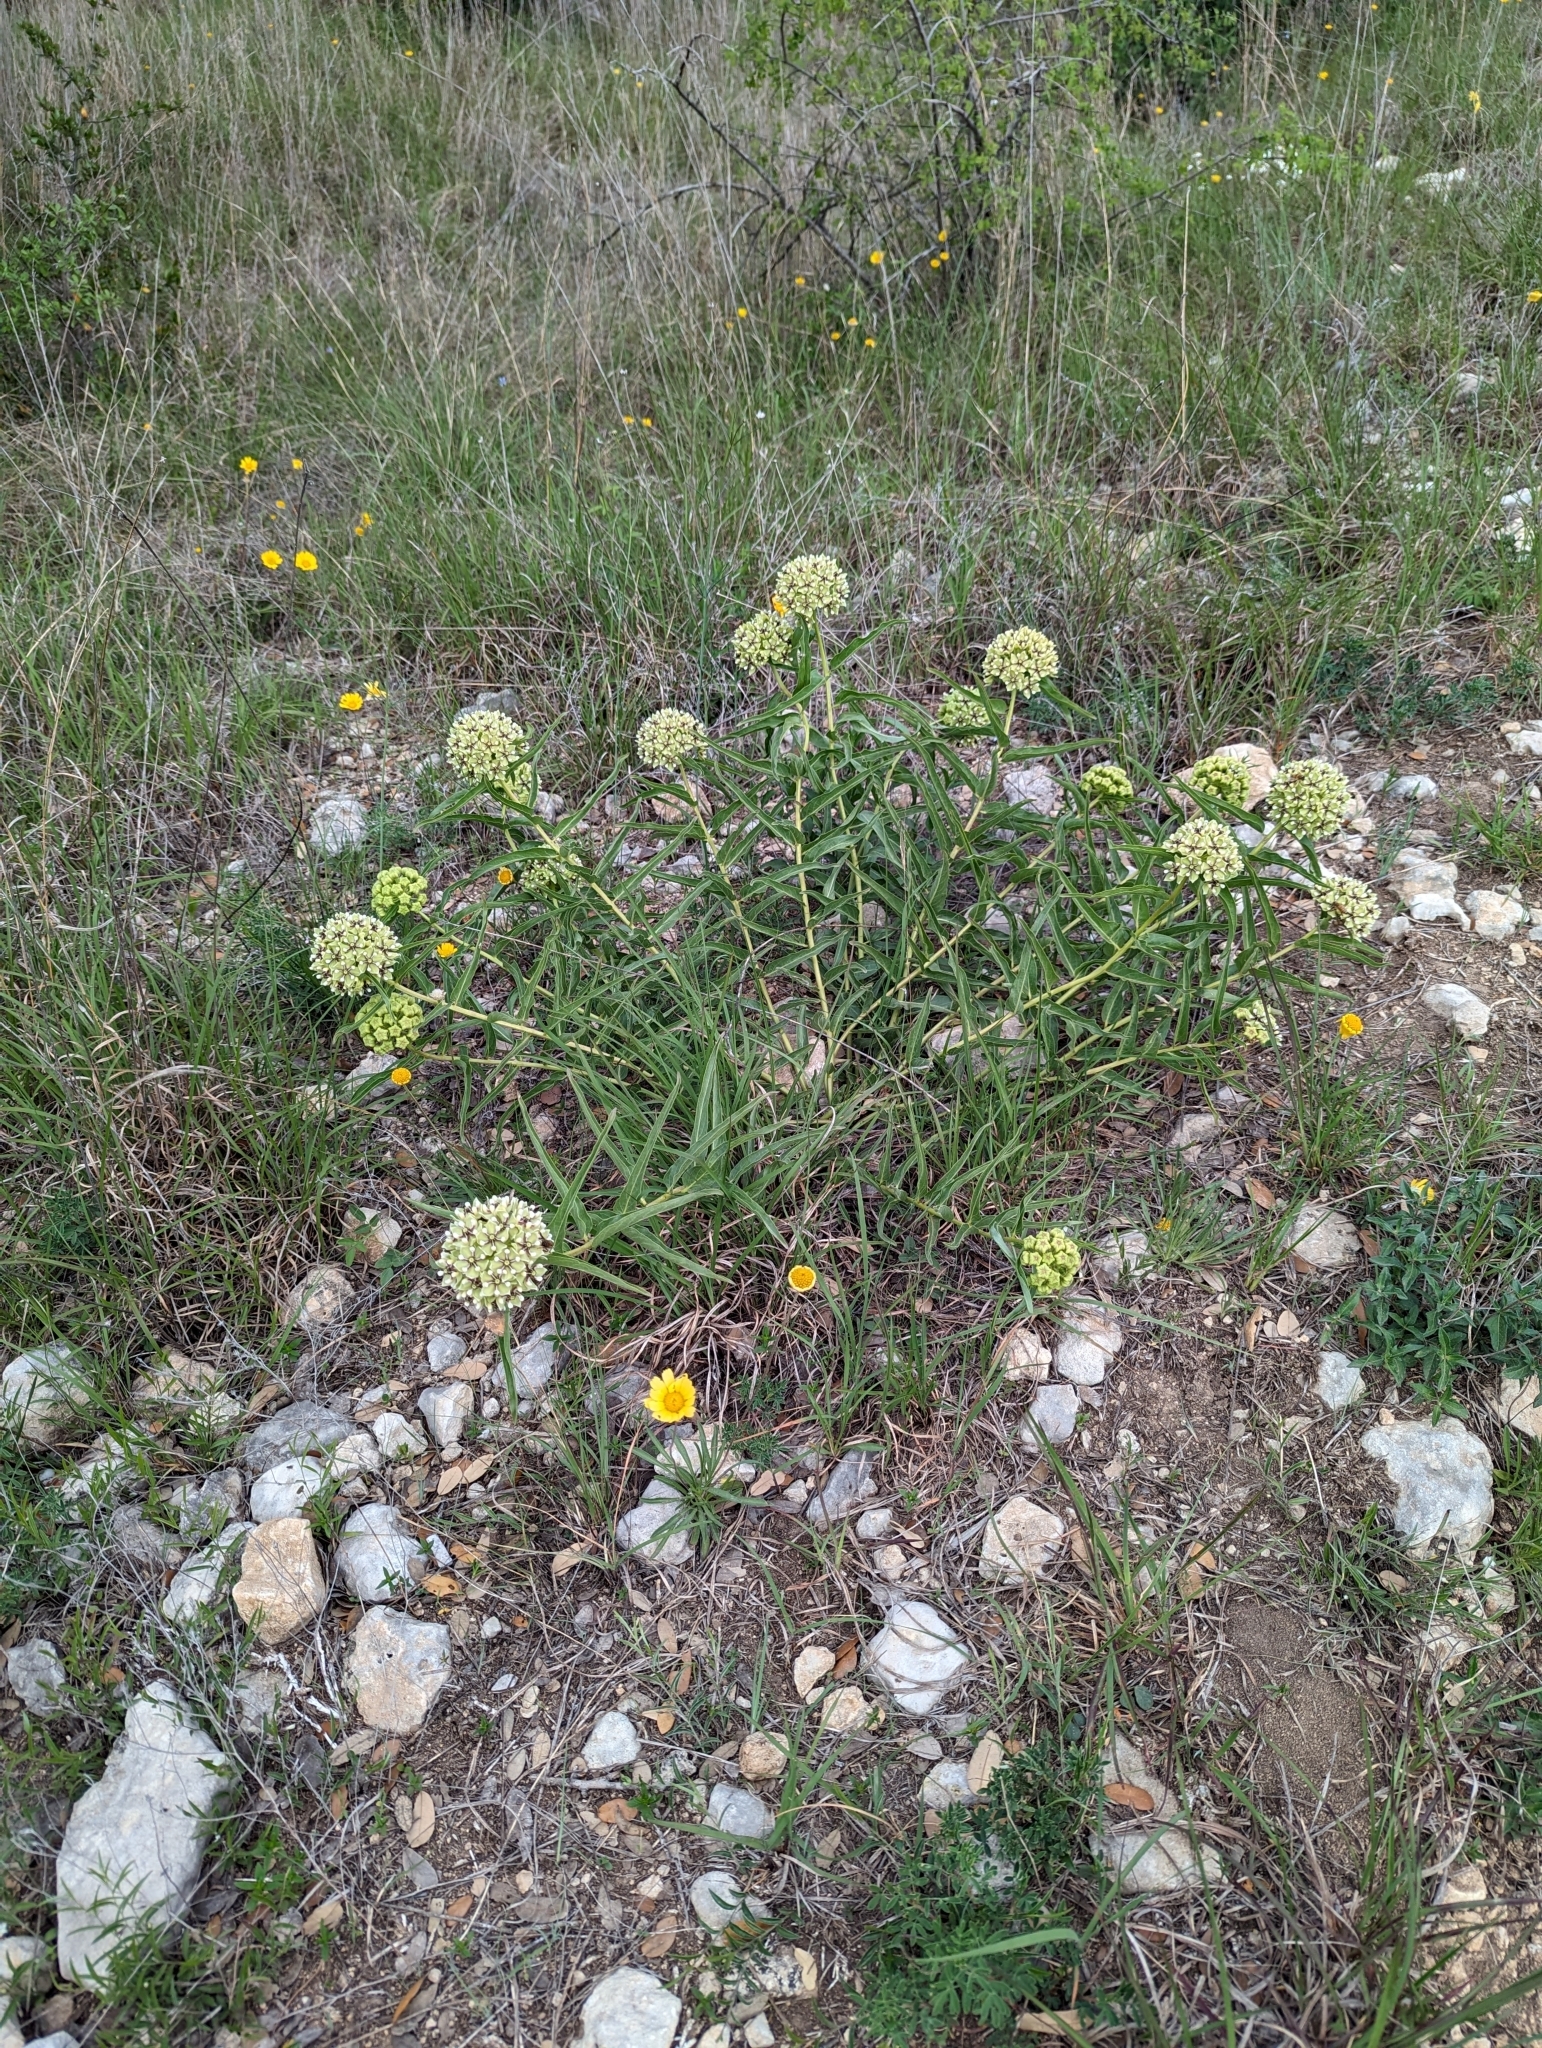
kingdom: Plantae
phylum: Tracheophyta
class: Magnoliopsida
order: Gentianales
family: Apocynaceae
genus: Asclepias
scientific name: Asclepias asperula
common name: Antelope horns
